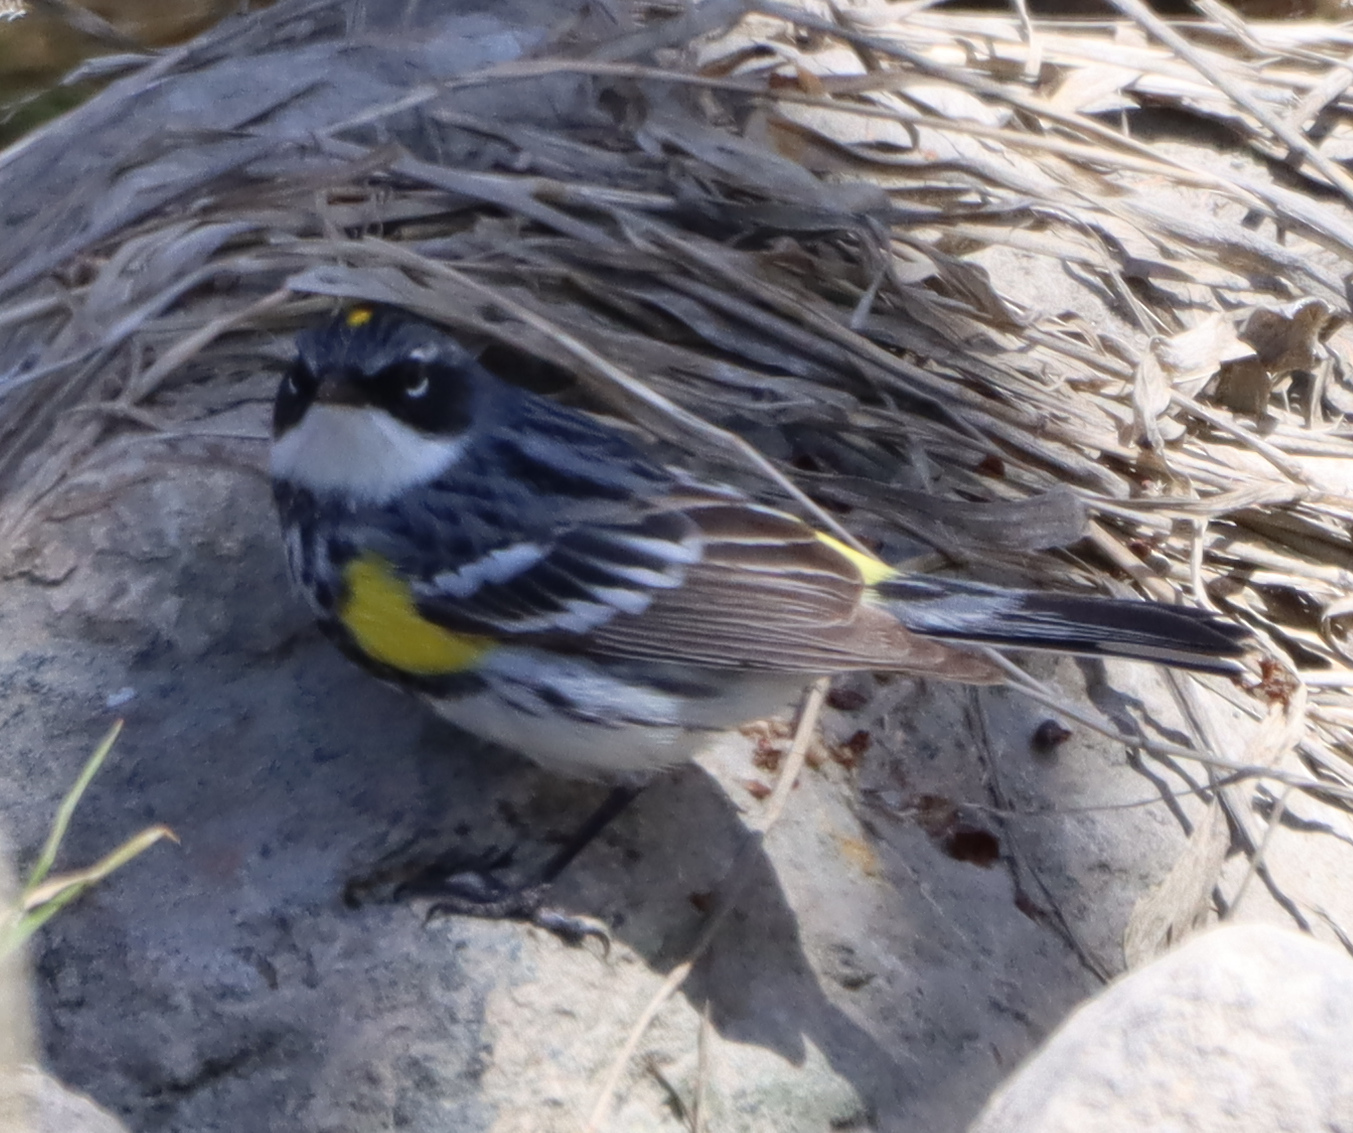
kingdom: Animalia
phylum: Chordata
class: Aves
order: Passeriformes
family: Parulidae
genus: Setophaga
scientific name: Setophaga coronata
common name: Myrtle warbler
